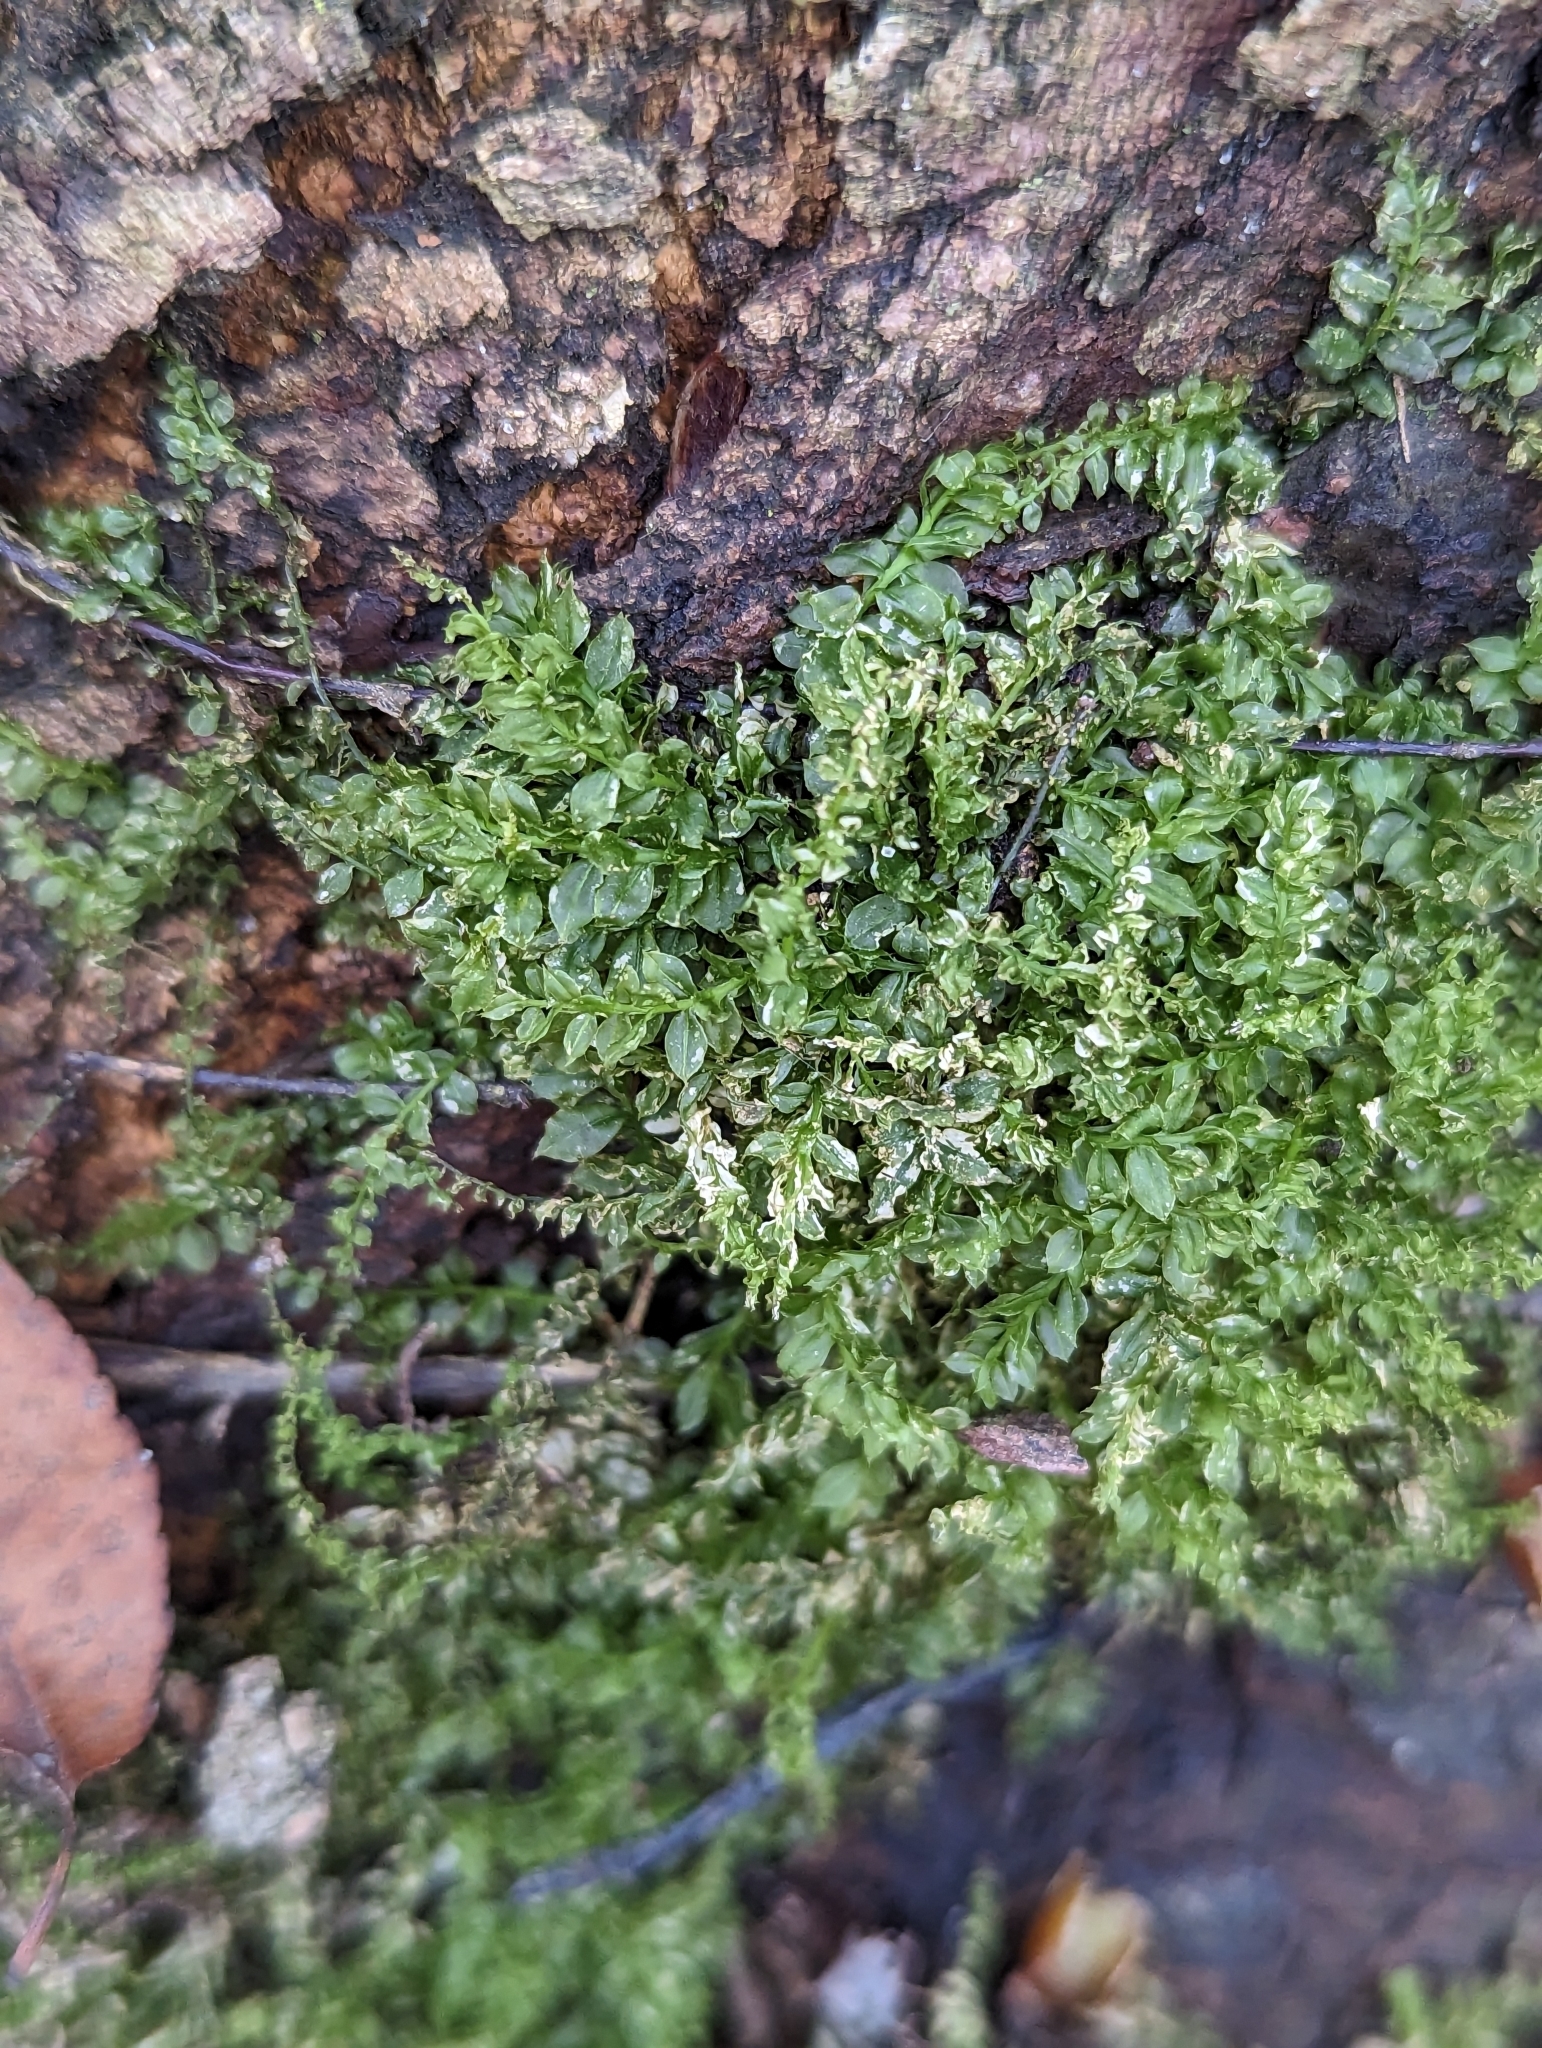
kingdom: Plantae
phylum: Bryophyta
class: Bryopsida
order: Bryales
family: Mniaceae
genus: Plagiomnium
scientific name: Plagiomnium cuspidatum
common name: Woodsy leafy moss
